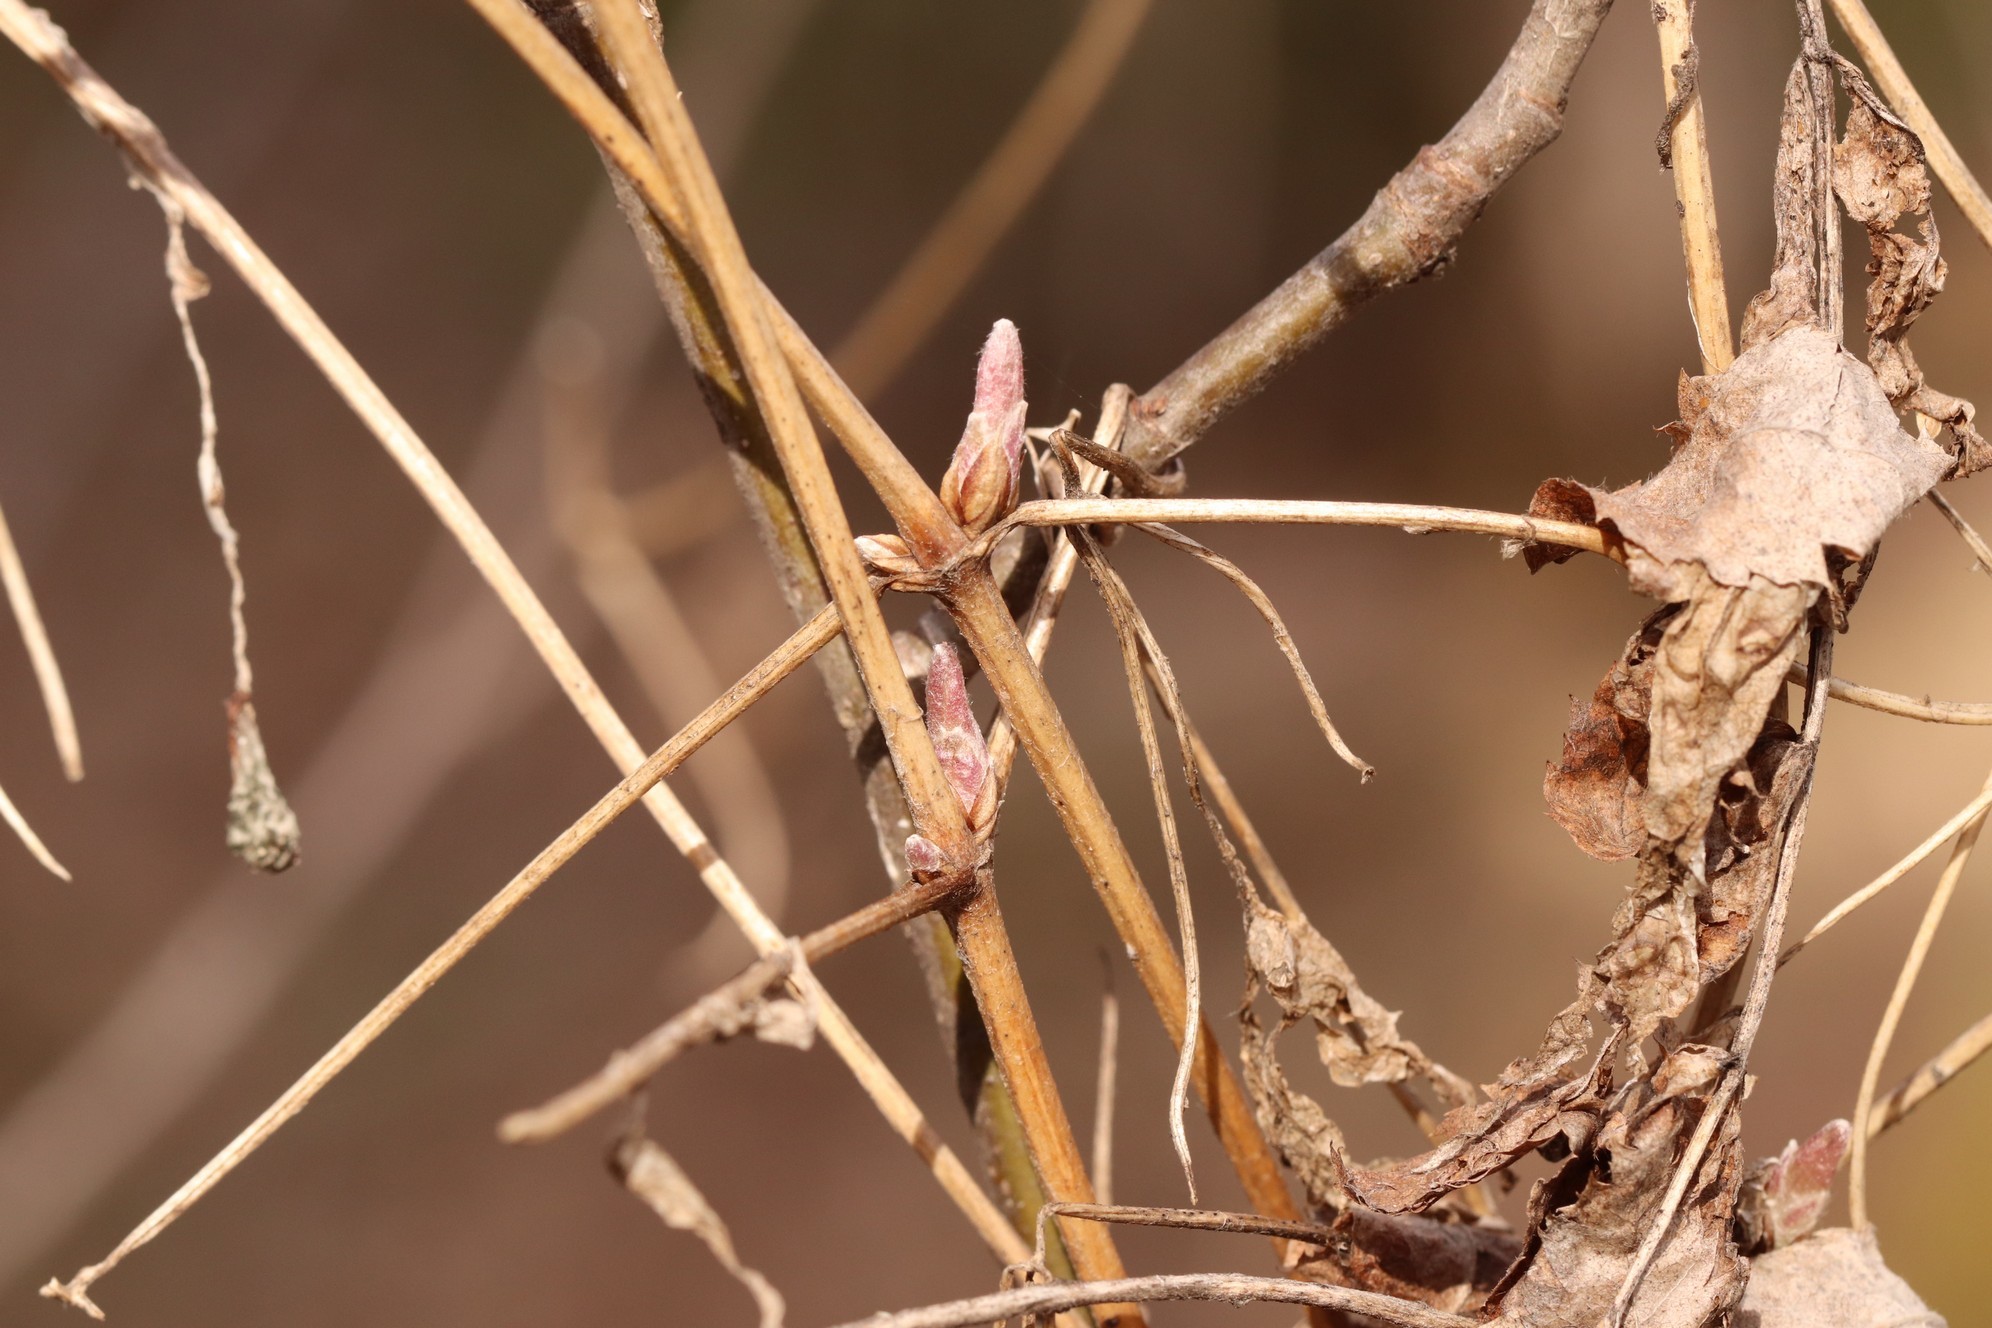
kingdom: Plantae
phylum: Tracheophyta
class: Magnoliopsida
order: Ranunculales
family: Ranunculaceae
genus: Clematis
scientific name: Clematis sibirica
